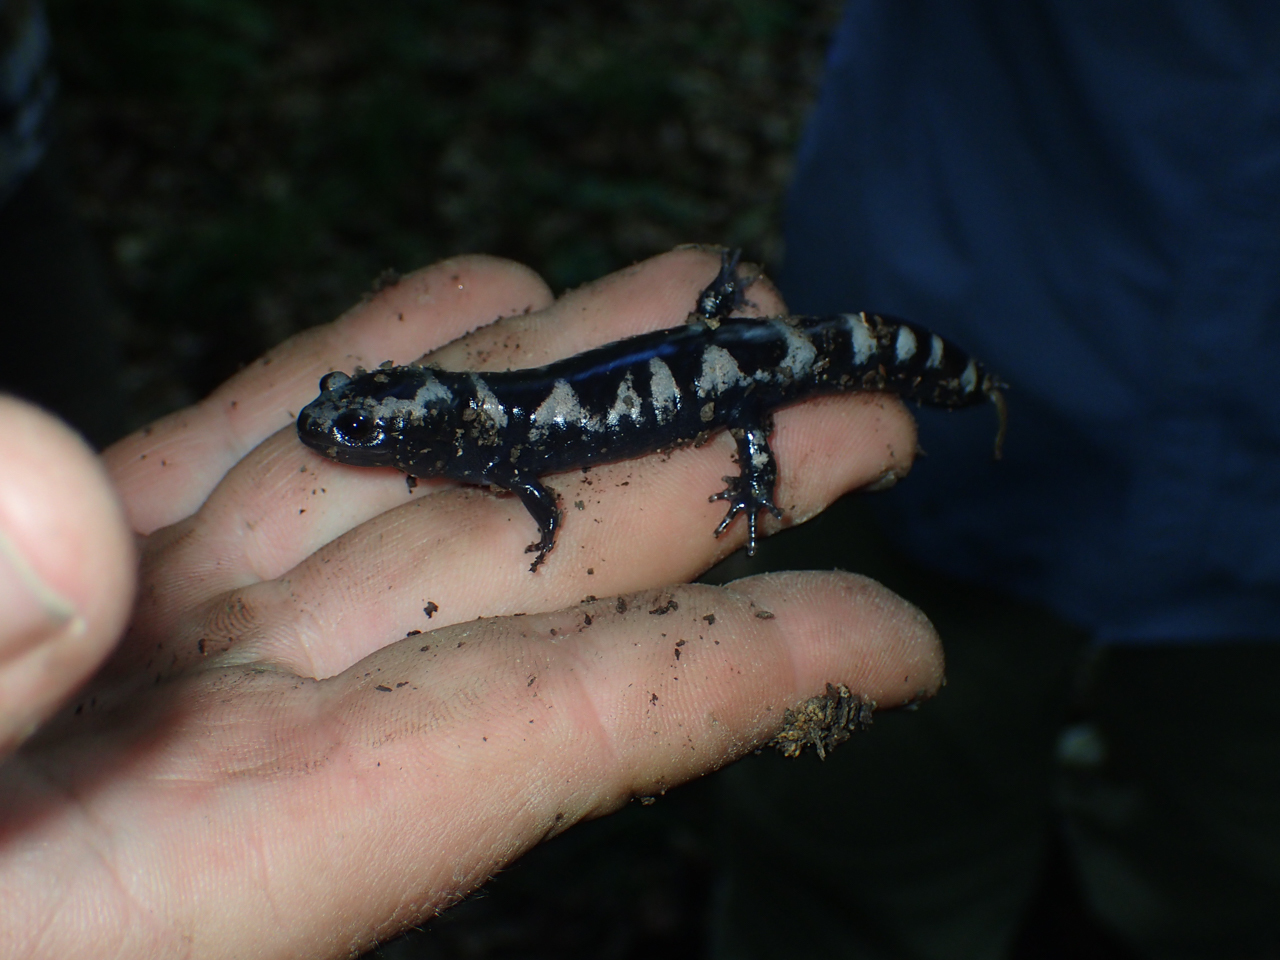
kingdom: Animalia
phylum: Chordata
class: Amphibia
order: Caudata
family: Ambystomatidae
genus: Ambystoma
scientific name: Ambystoma opacum
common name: Marbled salamander
